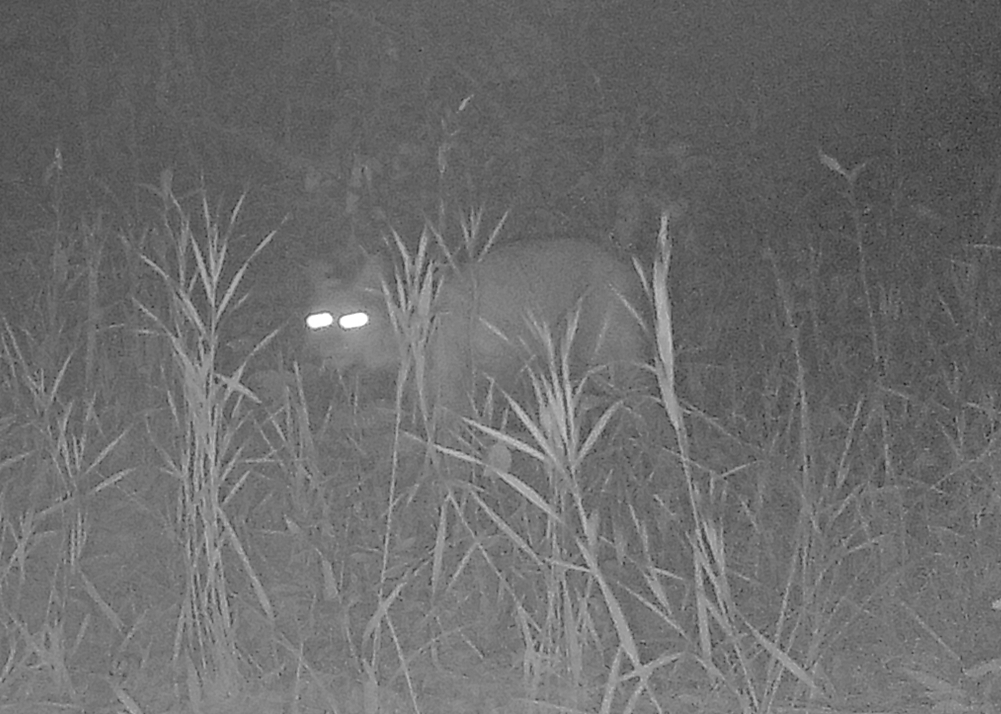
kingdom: Animalia
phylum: Chordata
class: Mammalia
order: Carnivora
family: Felidae
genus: Lynx
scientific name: Lynx rufus
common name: Bobcat
